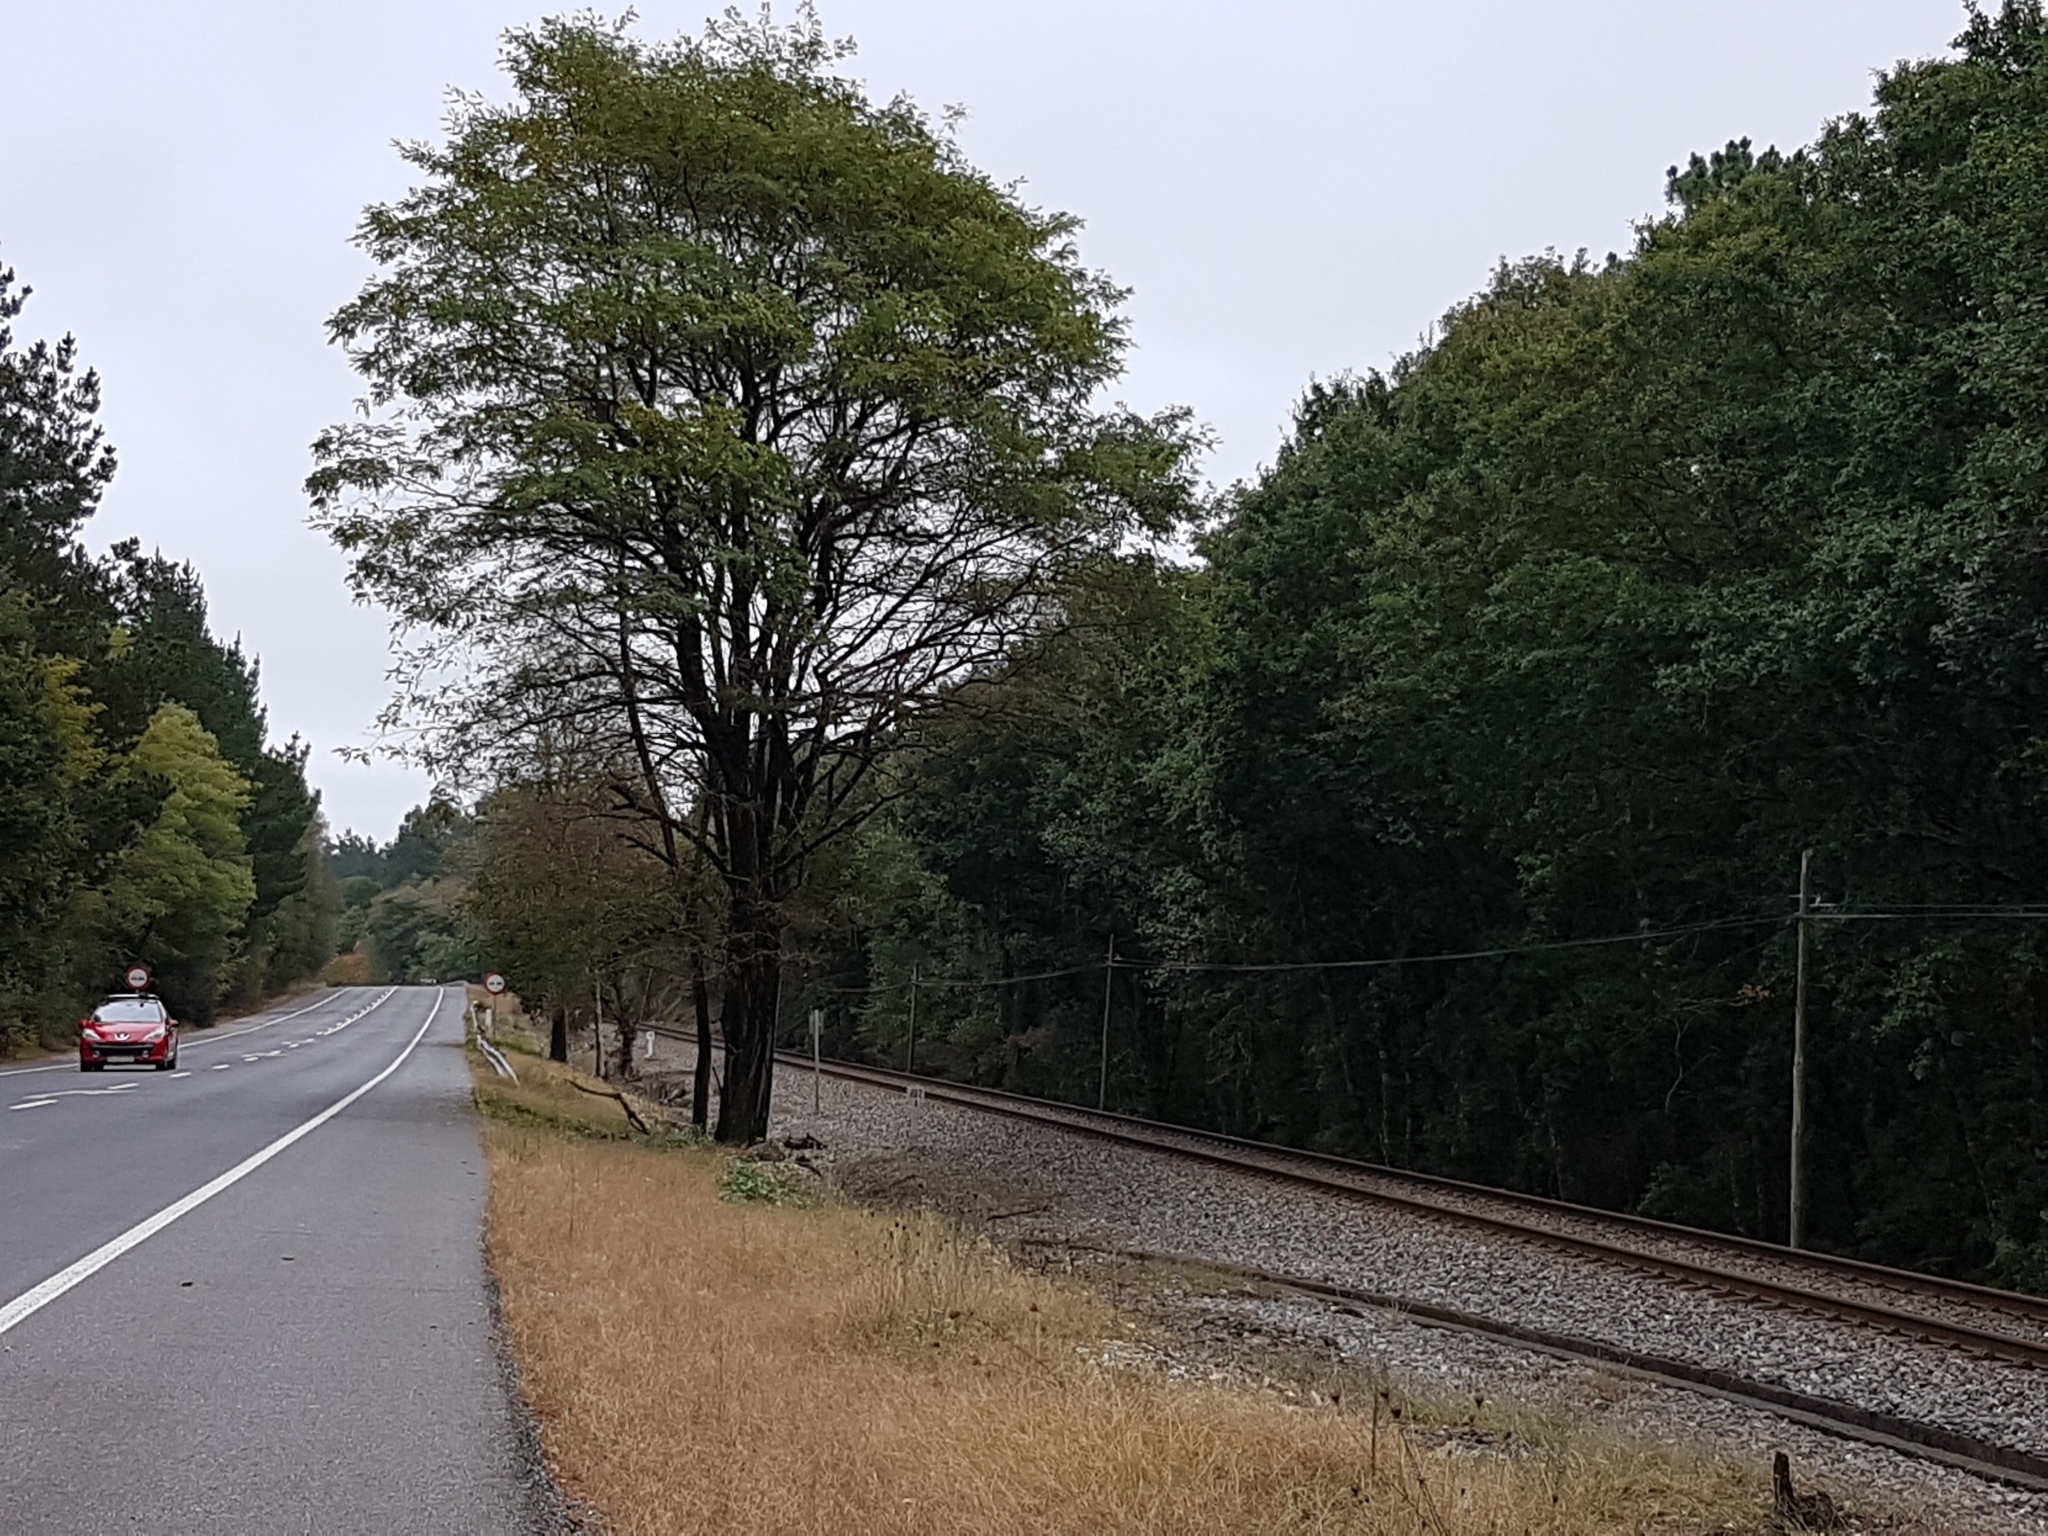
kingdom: Plantae
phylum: Tracheophyta
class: Magnoliopsida
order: Fabales
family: Fabaceae
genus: Robinia
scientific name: Robinia pseudoacacia
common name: Black locust
